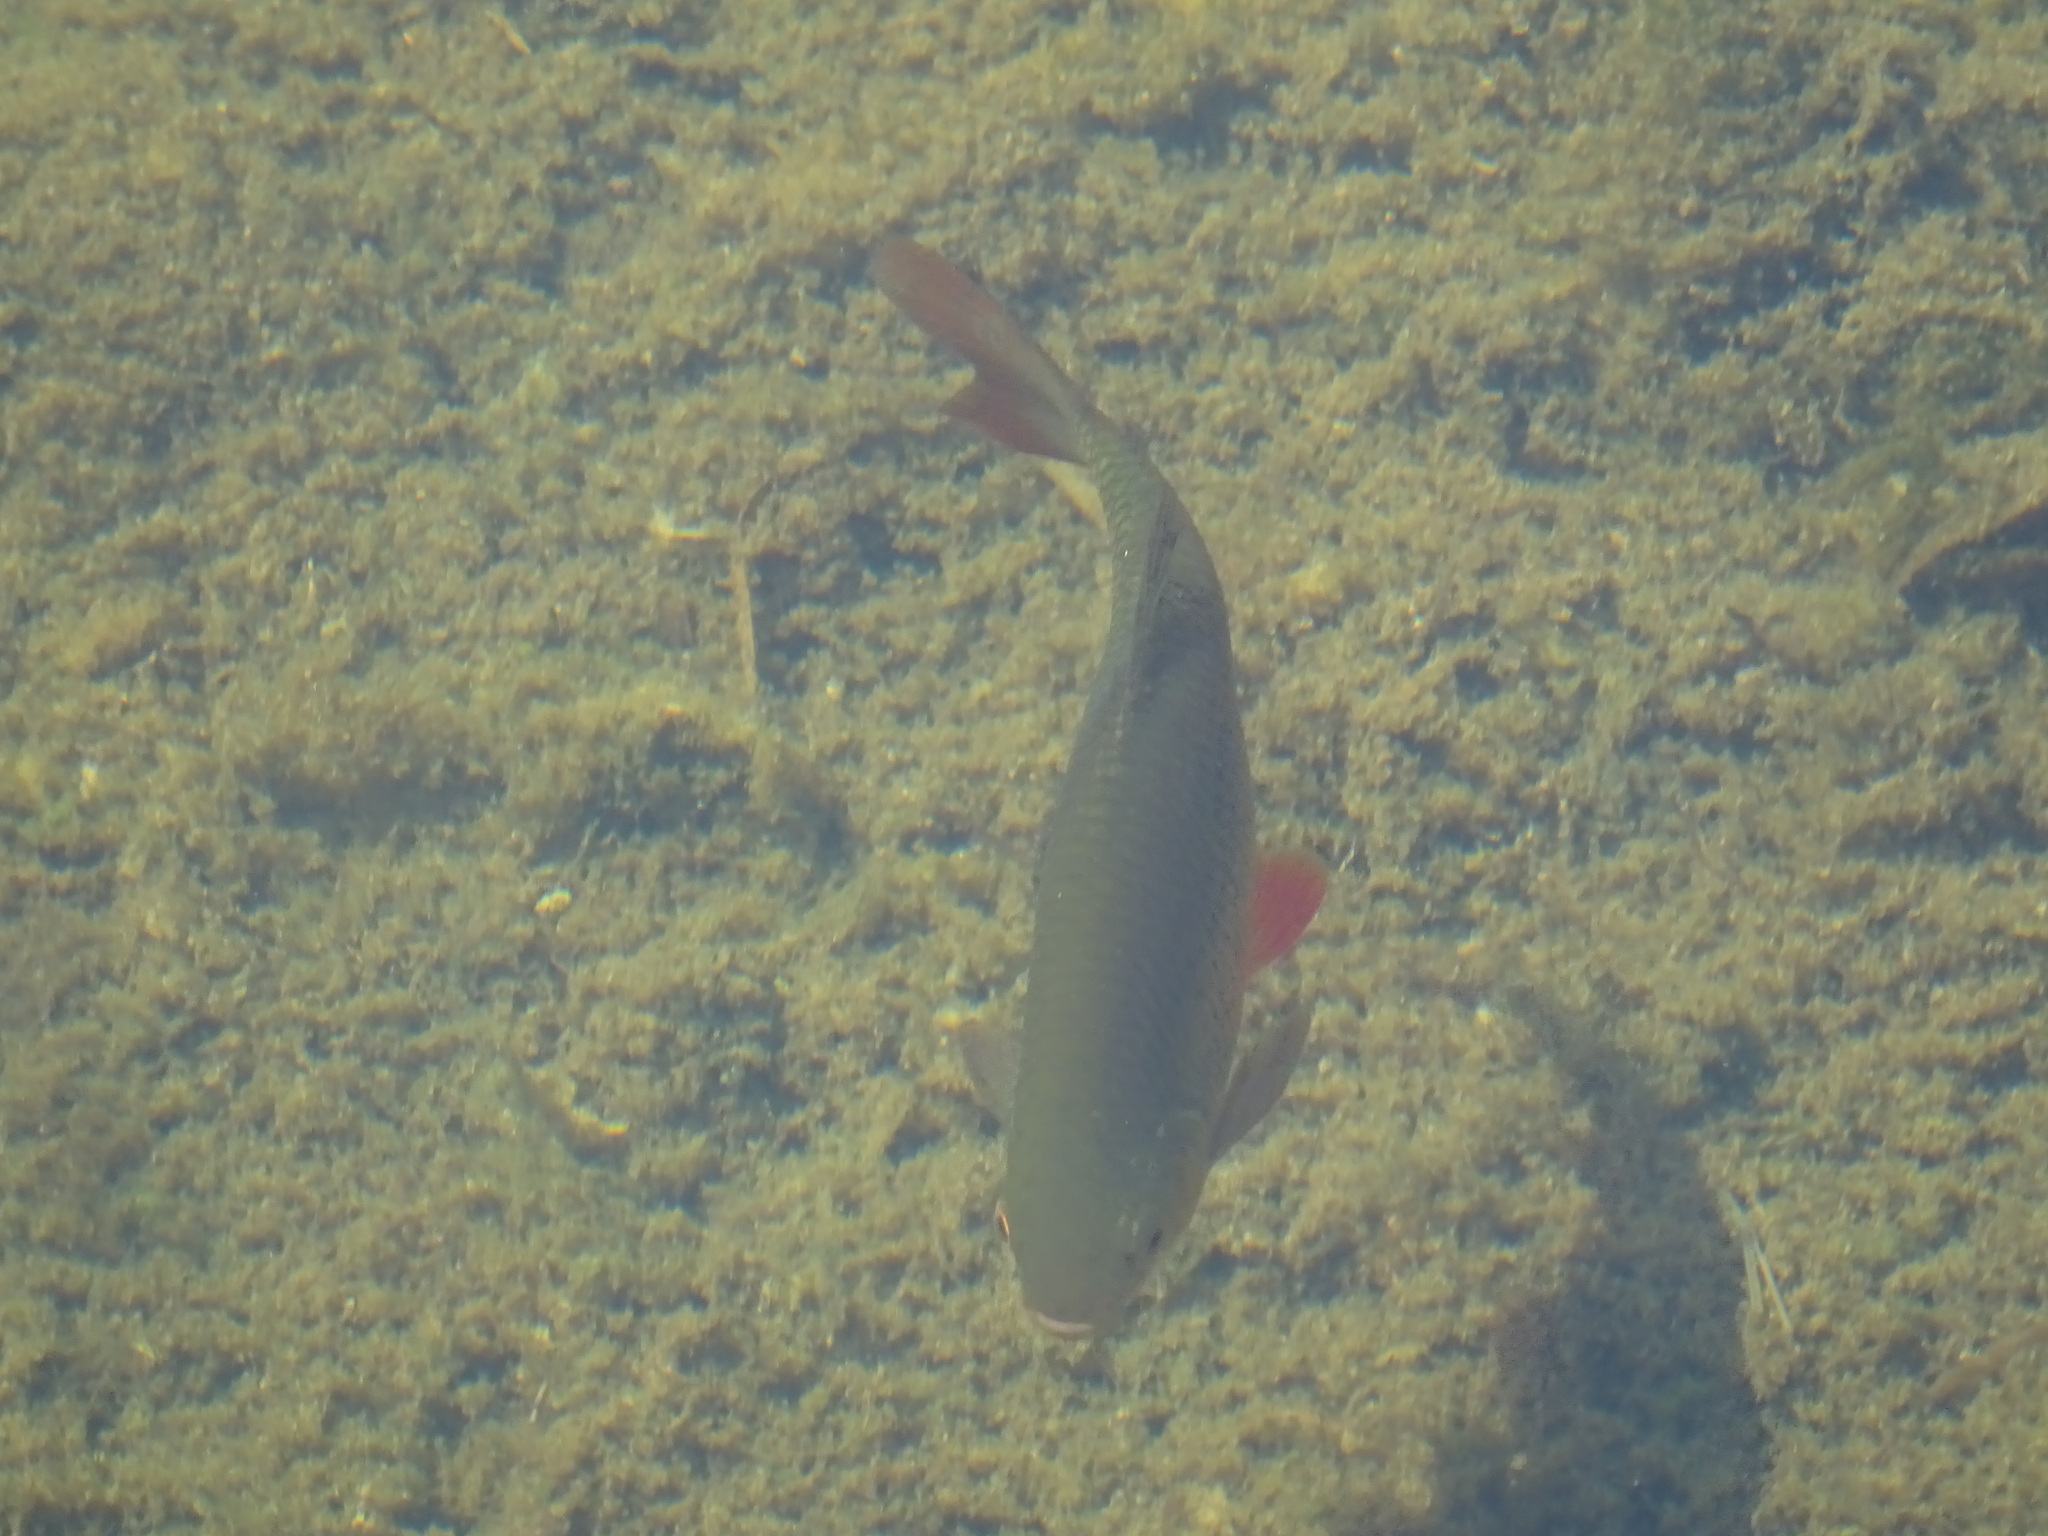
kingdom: Animalia
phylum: Chordata
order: Cypriniformes
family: Cyprinidae
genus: Scardinius
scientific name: Scardinius erythrophthalmus
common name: Rudd
